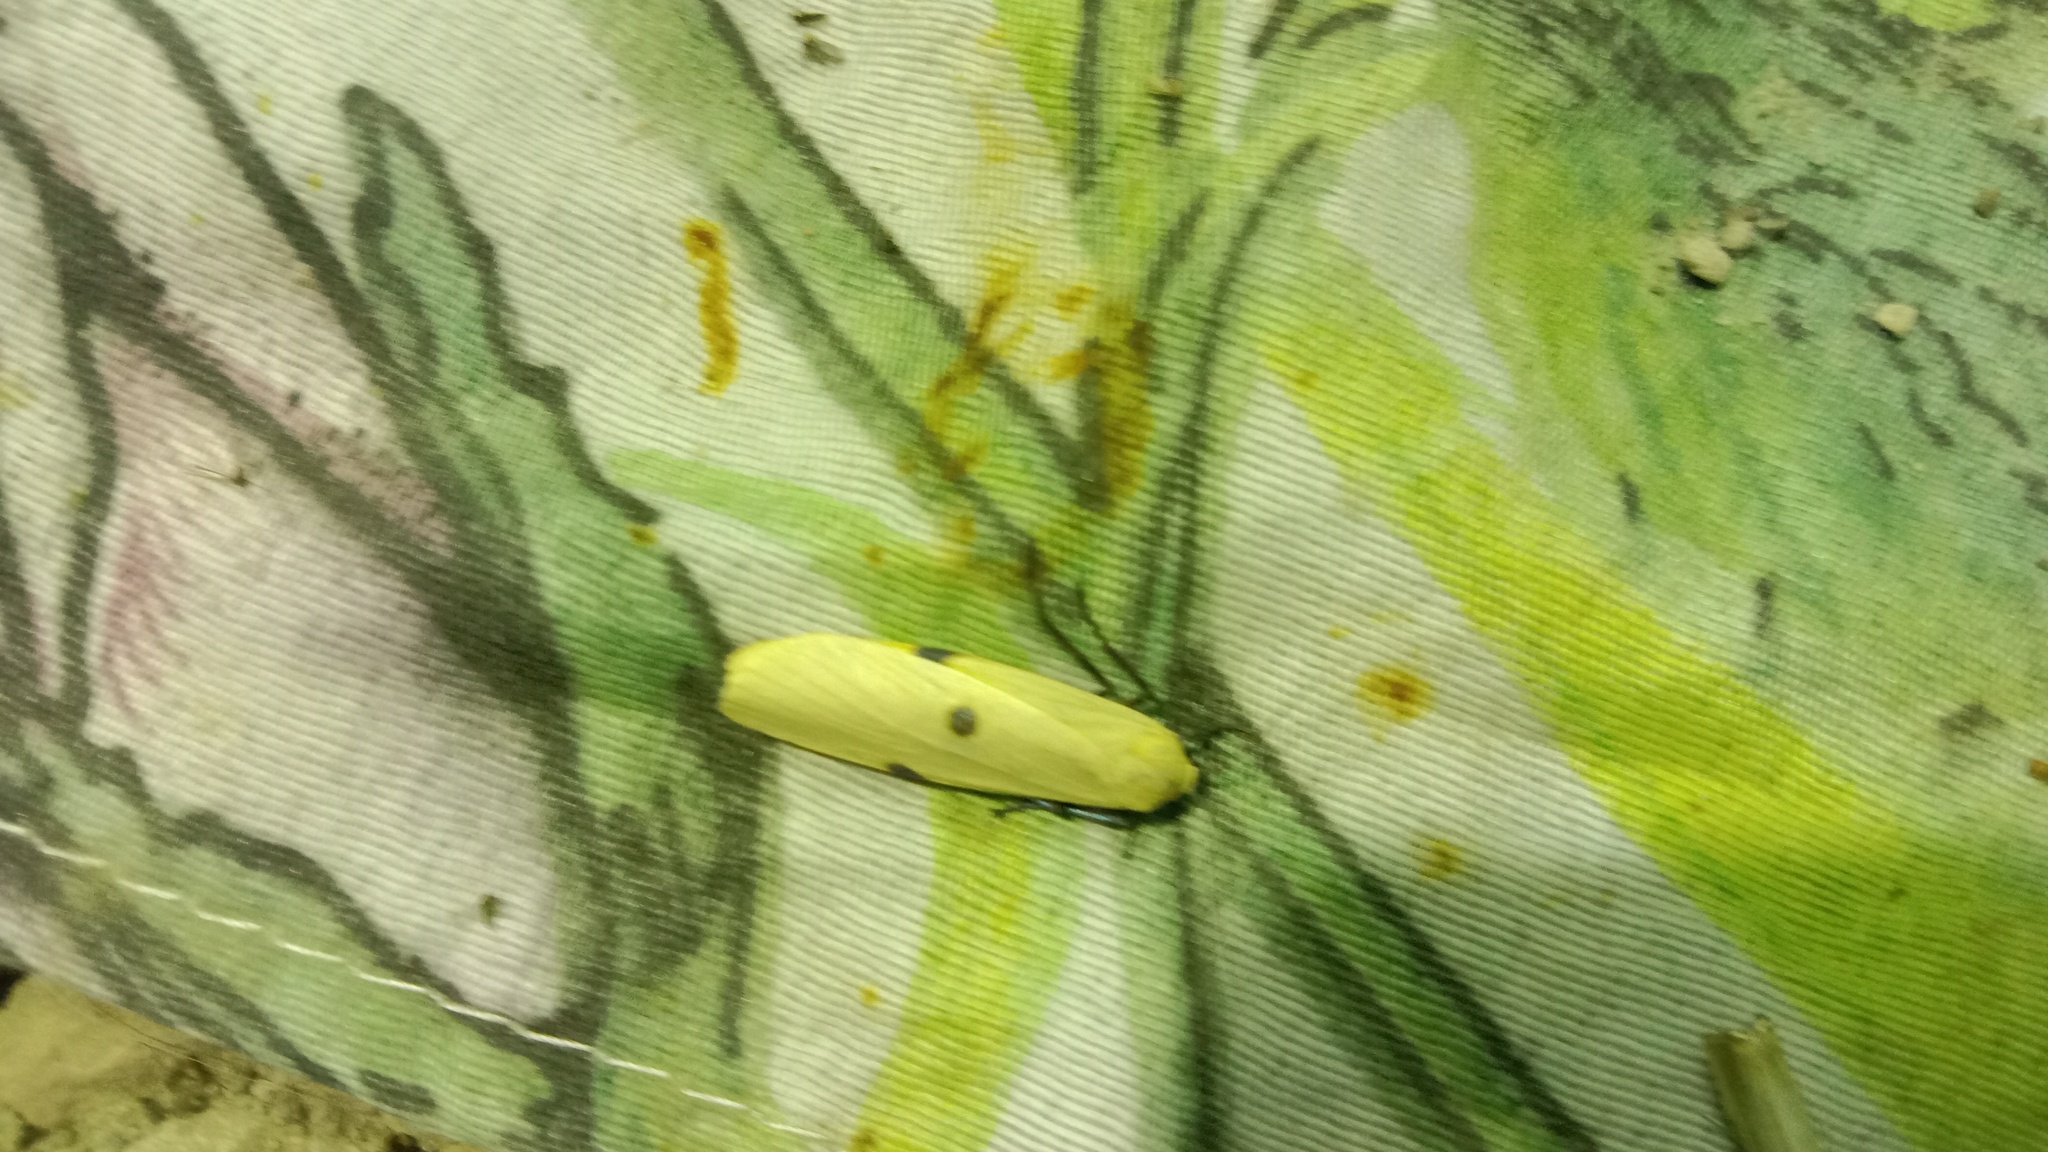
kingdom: Animalia
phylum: Arthropoda
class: Insecta
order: Lepidoptera
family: Erebidae
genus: Lithosia
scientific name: Lithosia quadra
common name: Four-spotted footman
